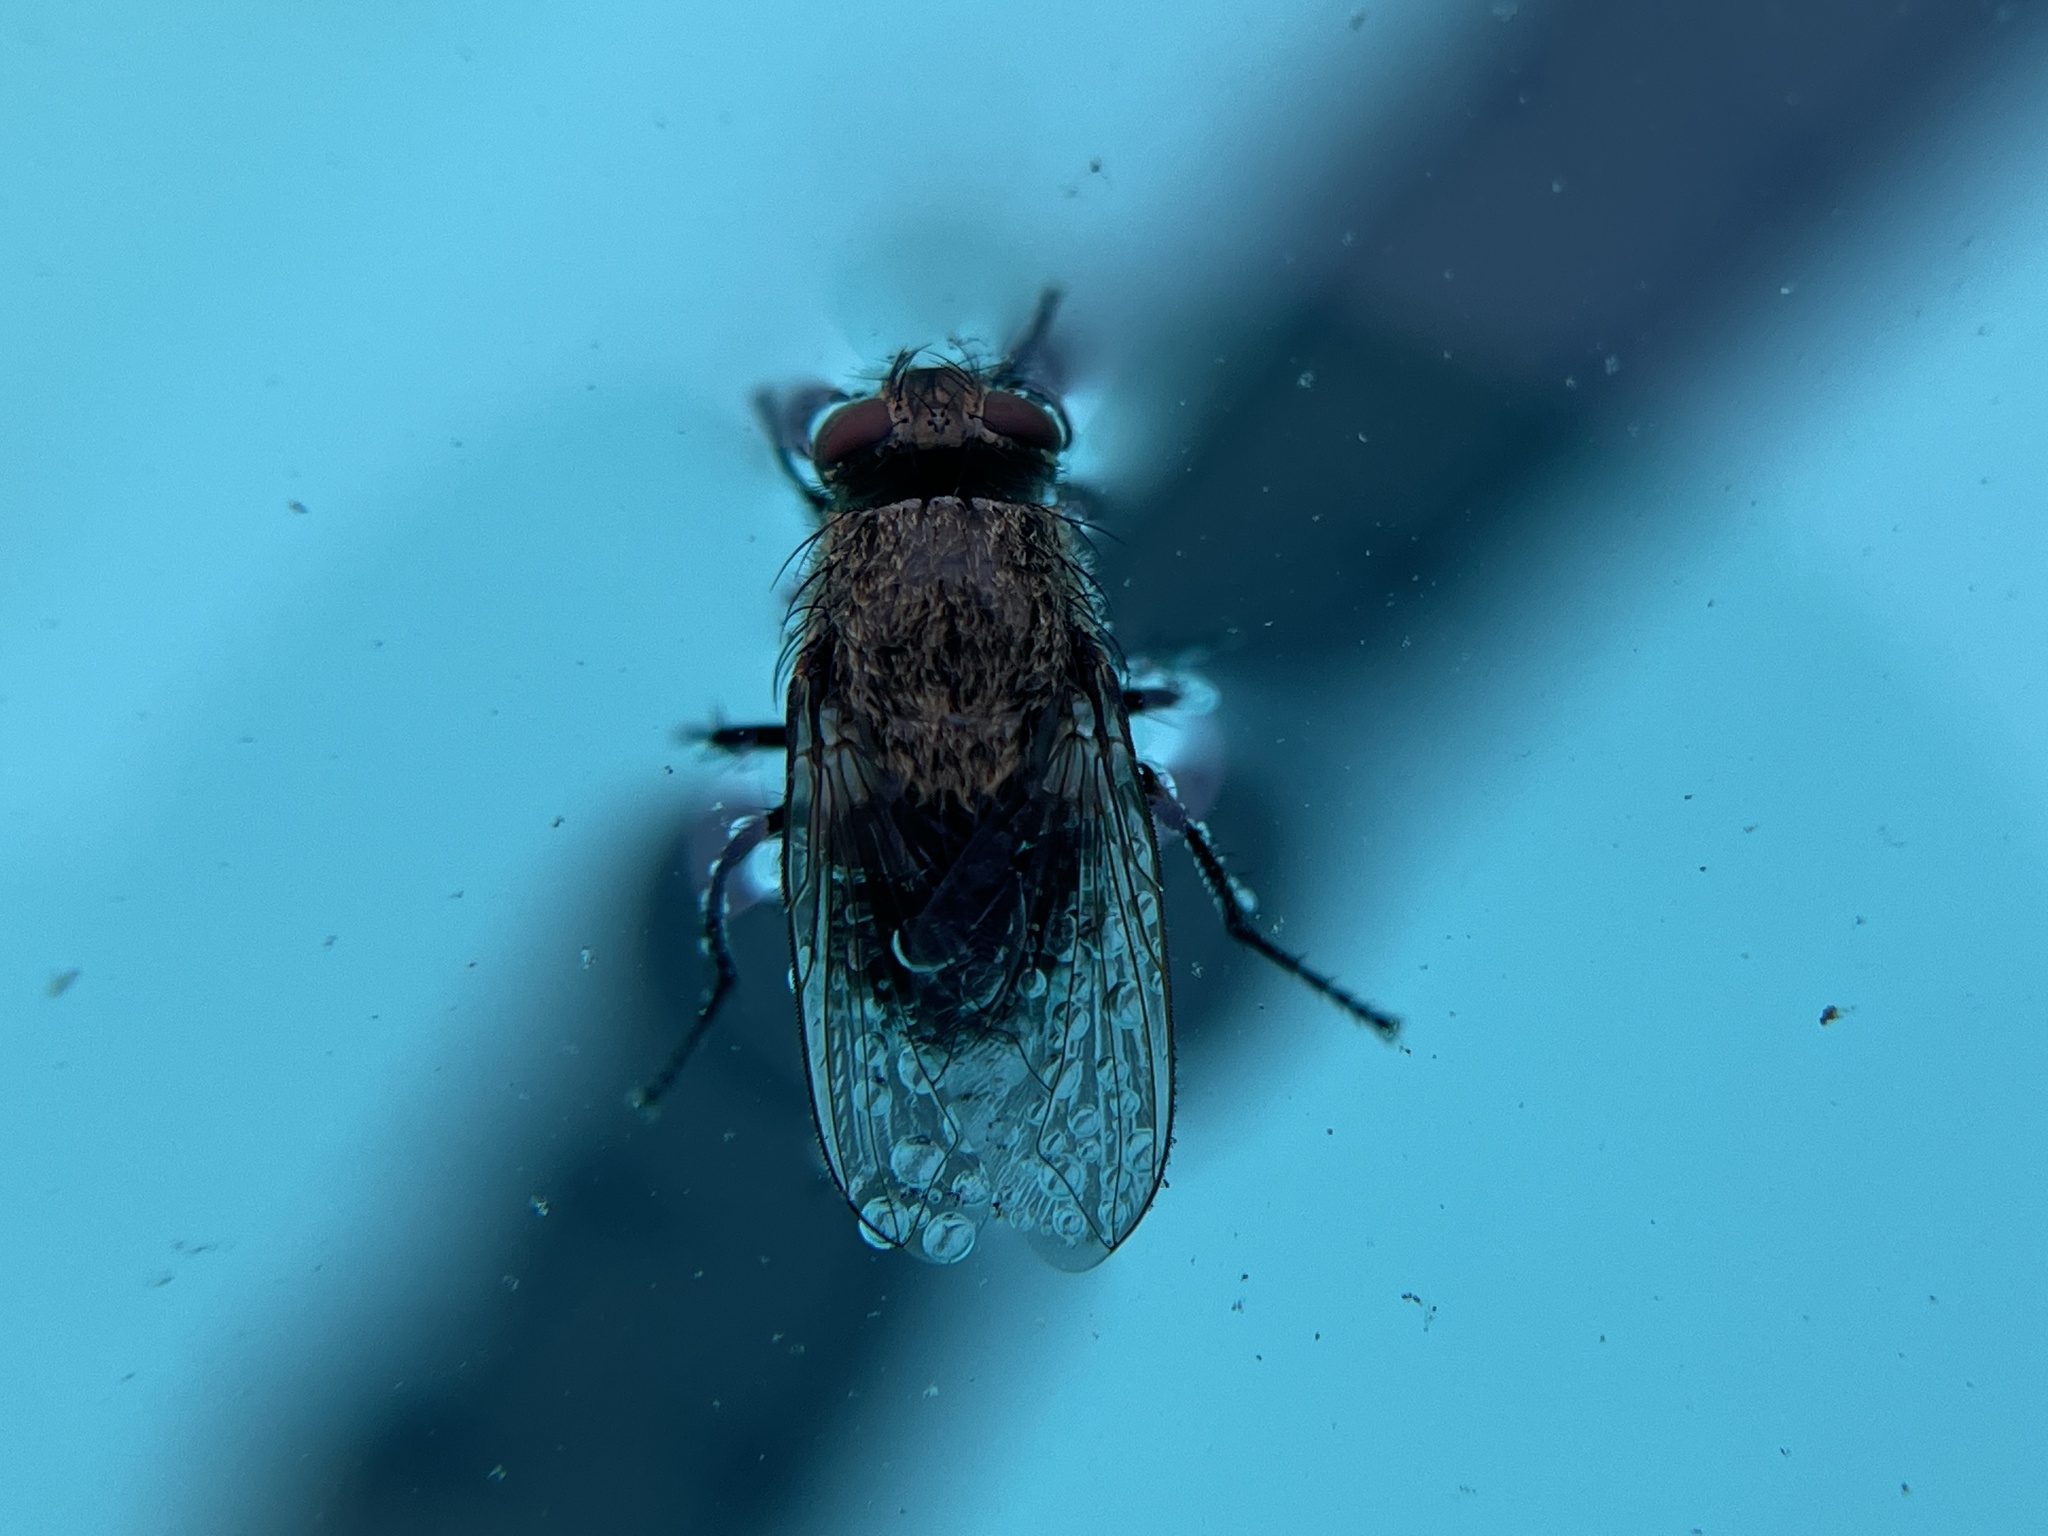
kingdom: Animalia
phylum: Arthropoda
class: Insecta
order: Diptera
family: Polleniidae
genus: Pollenia
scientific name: Pollenia
